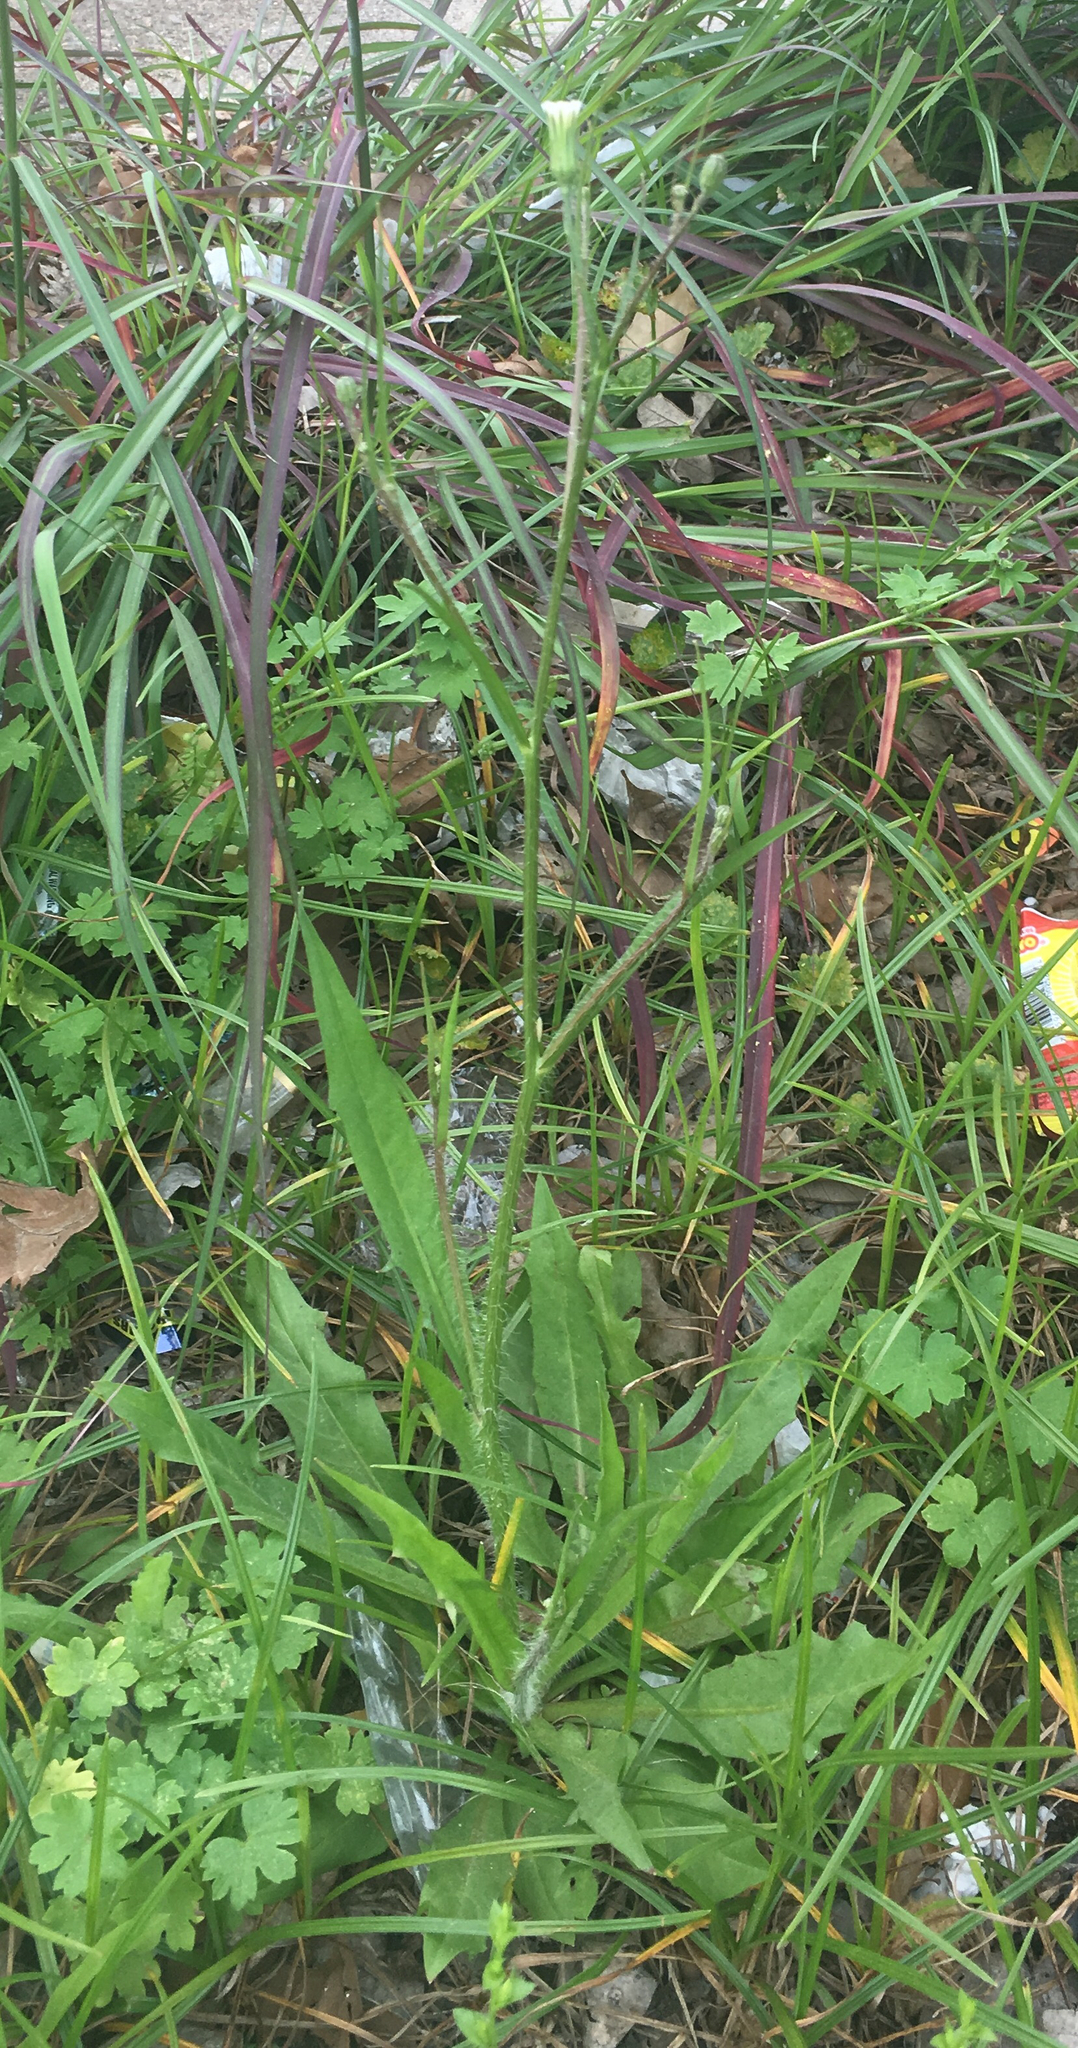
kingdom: Plantae
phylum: Tracheophyta
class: Magnoliopsida
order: Asterales
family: Asteraceae
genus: Hypochaeris
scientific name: Hypochaeris albiflora
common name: White flatweed
